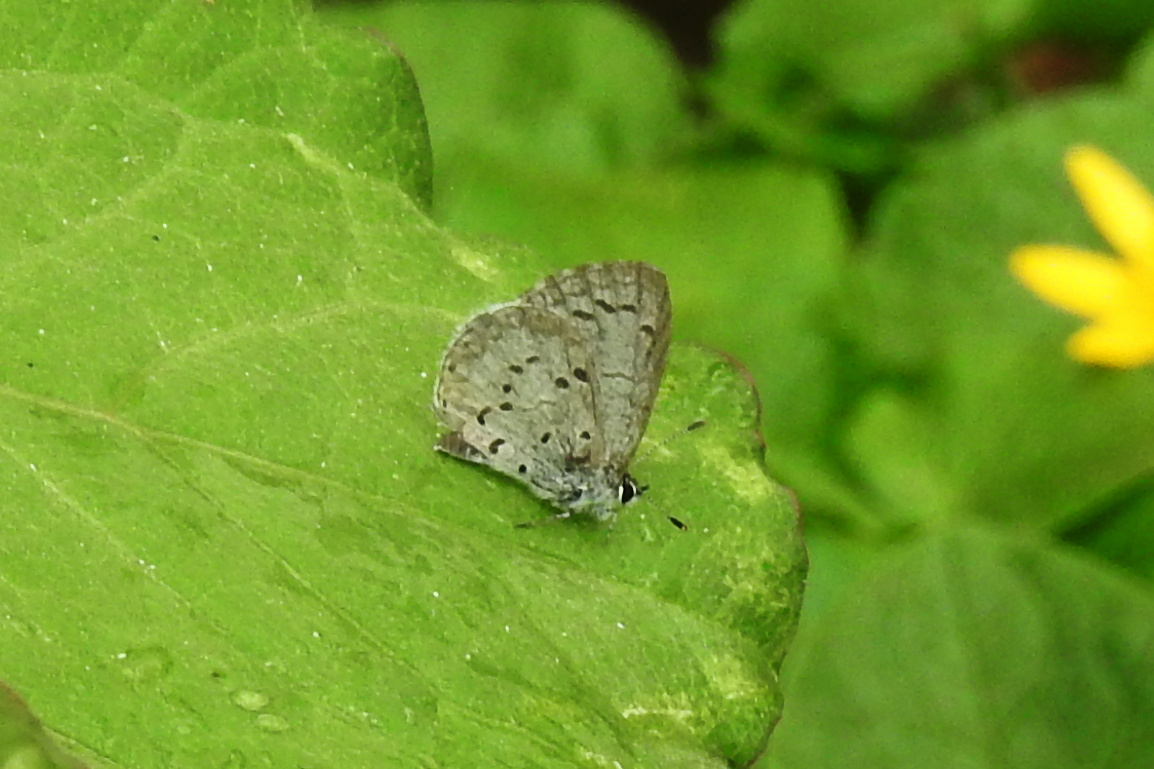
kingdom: Animalia
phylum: Arthropoda
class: Insecta
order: Lepidoptera
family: Lycaenidae
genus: Celastrina
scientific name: Celastrina ladon
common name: Spring azure
